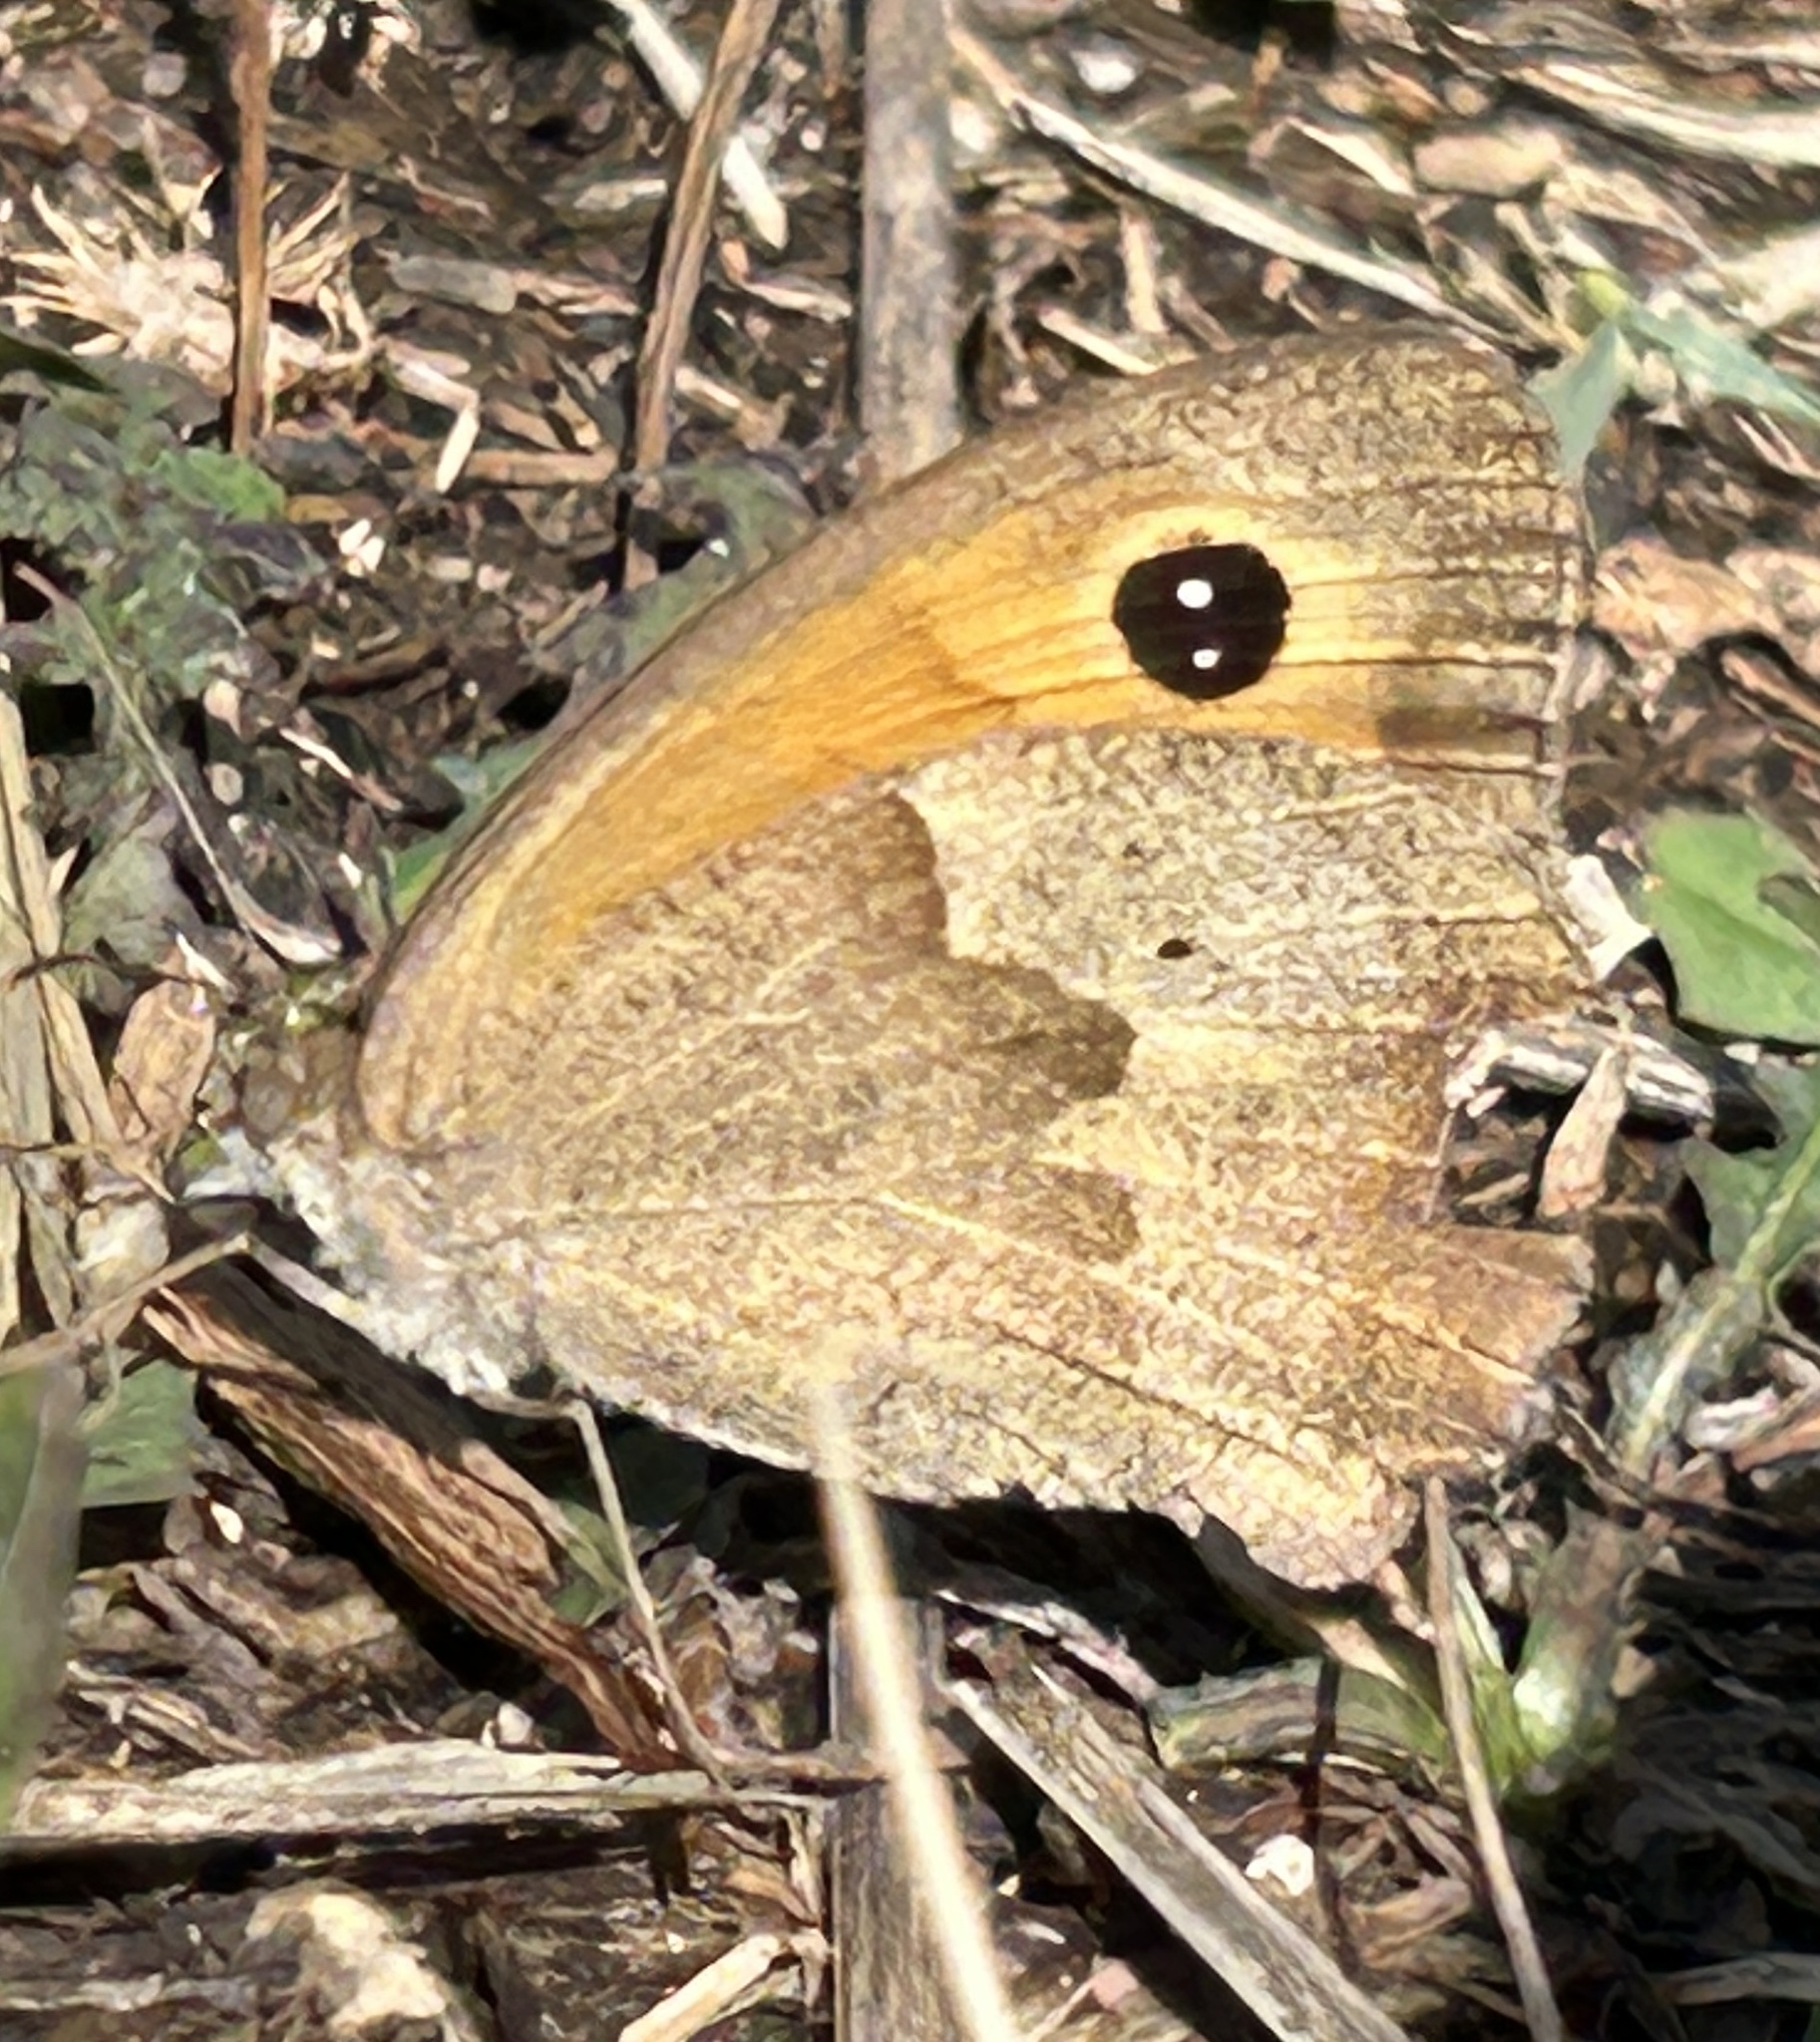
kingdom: Animalia
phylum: Arthropoda
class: Insecta
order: Lepidoptera
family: Nymphalidae
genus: Maniola
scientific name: Maniola jurtina
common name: Meadow brown
